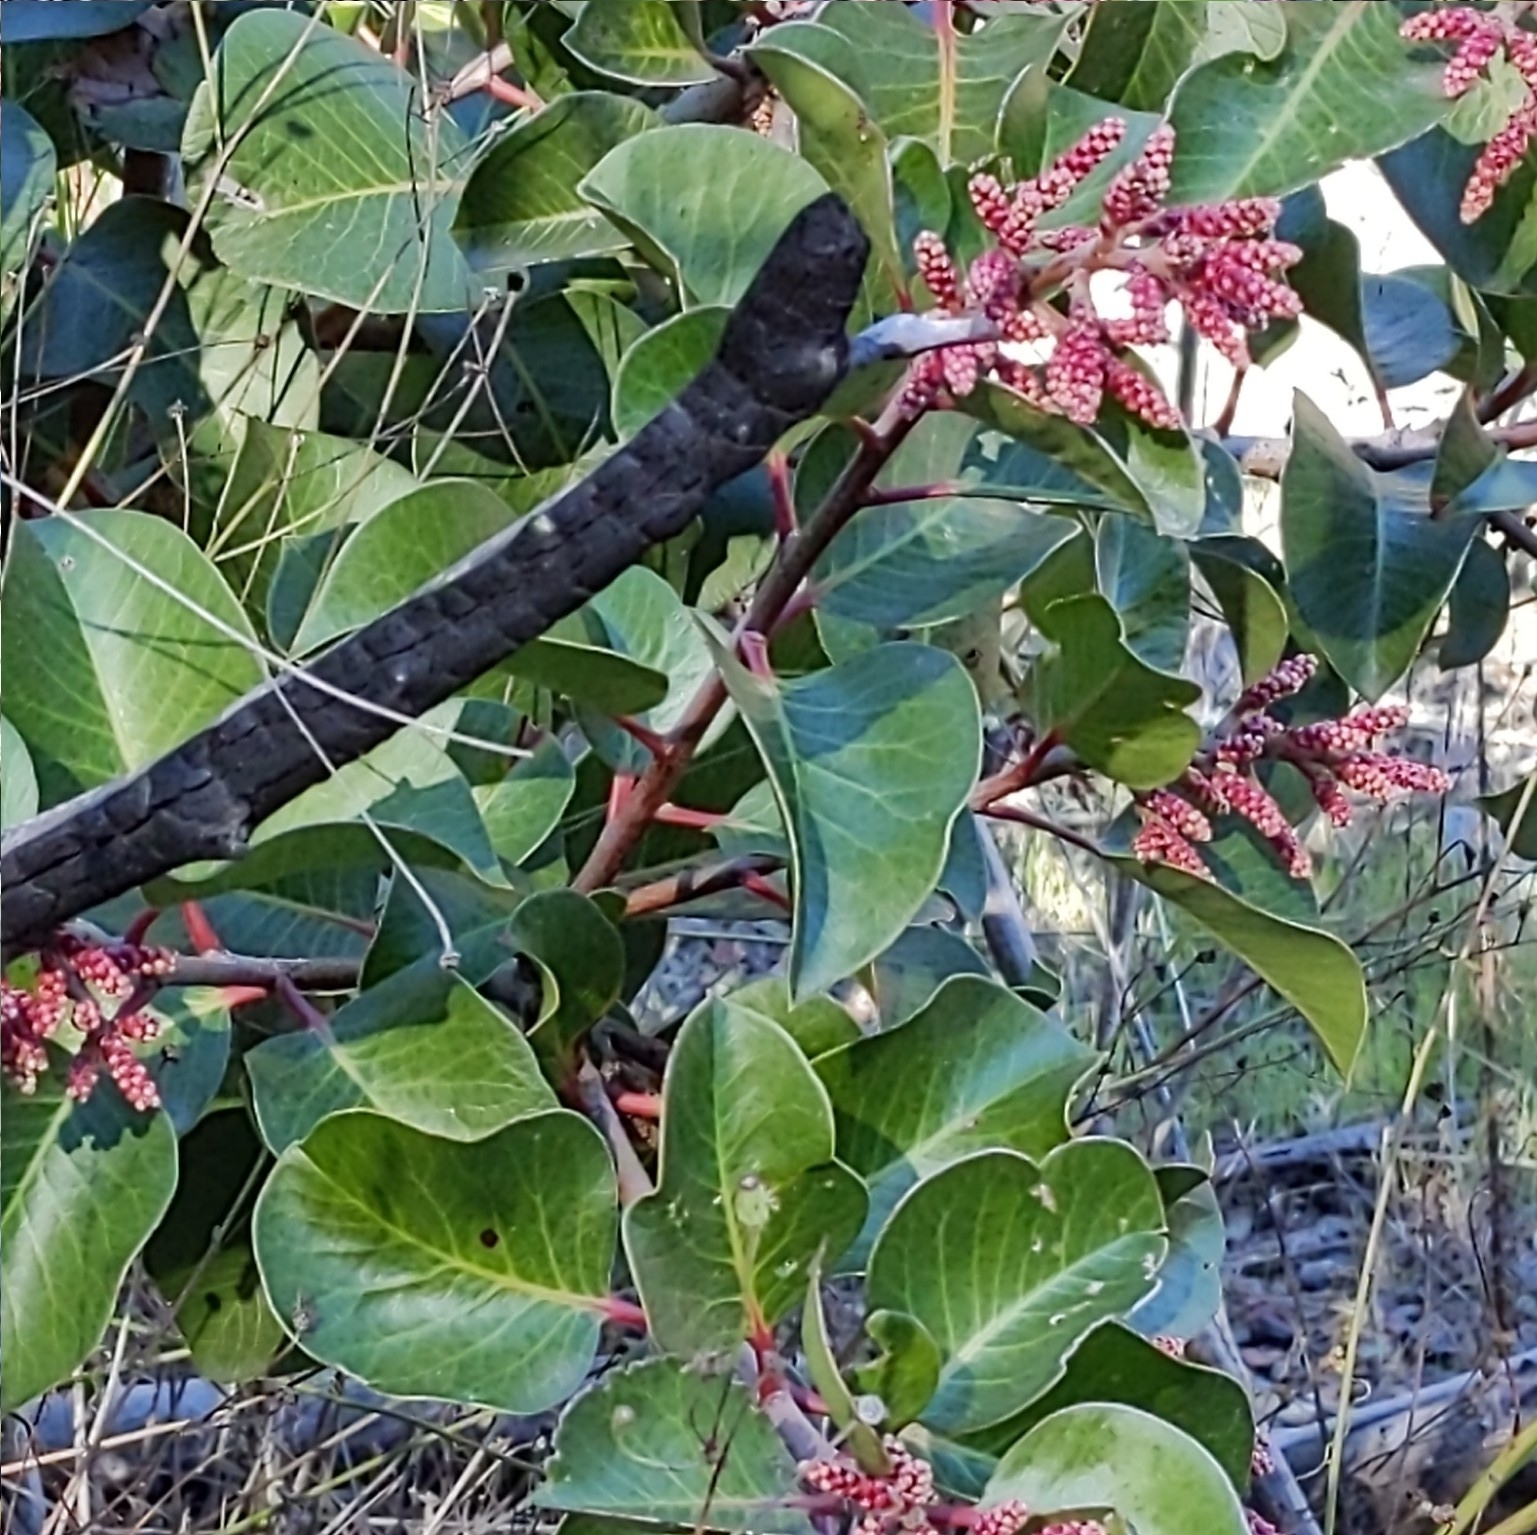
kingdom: Plantae
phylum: Tracheophyta
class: Magnoliopsida
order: Sapindales
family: Anacardiaceae
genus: Rhus
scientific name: Rhus ovata
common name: Sugar sumac
